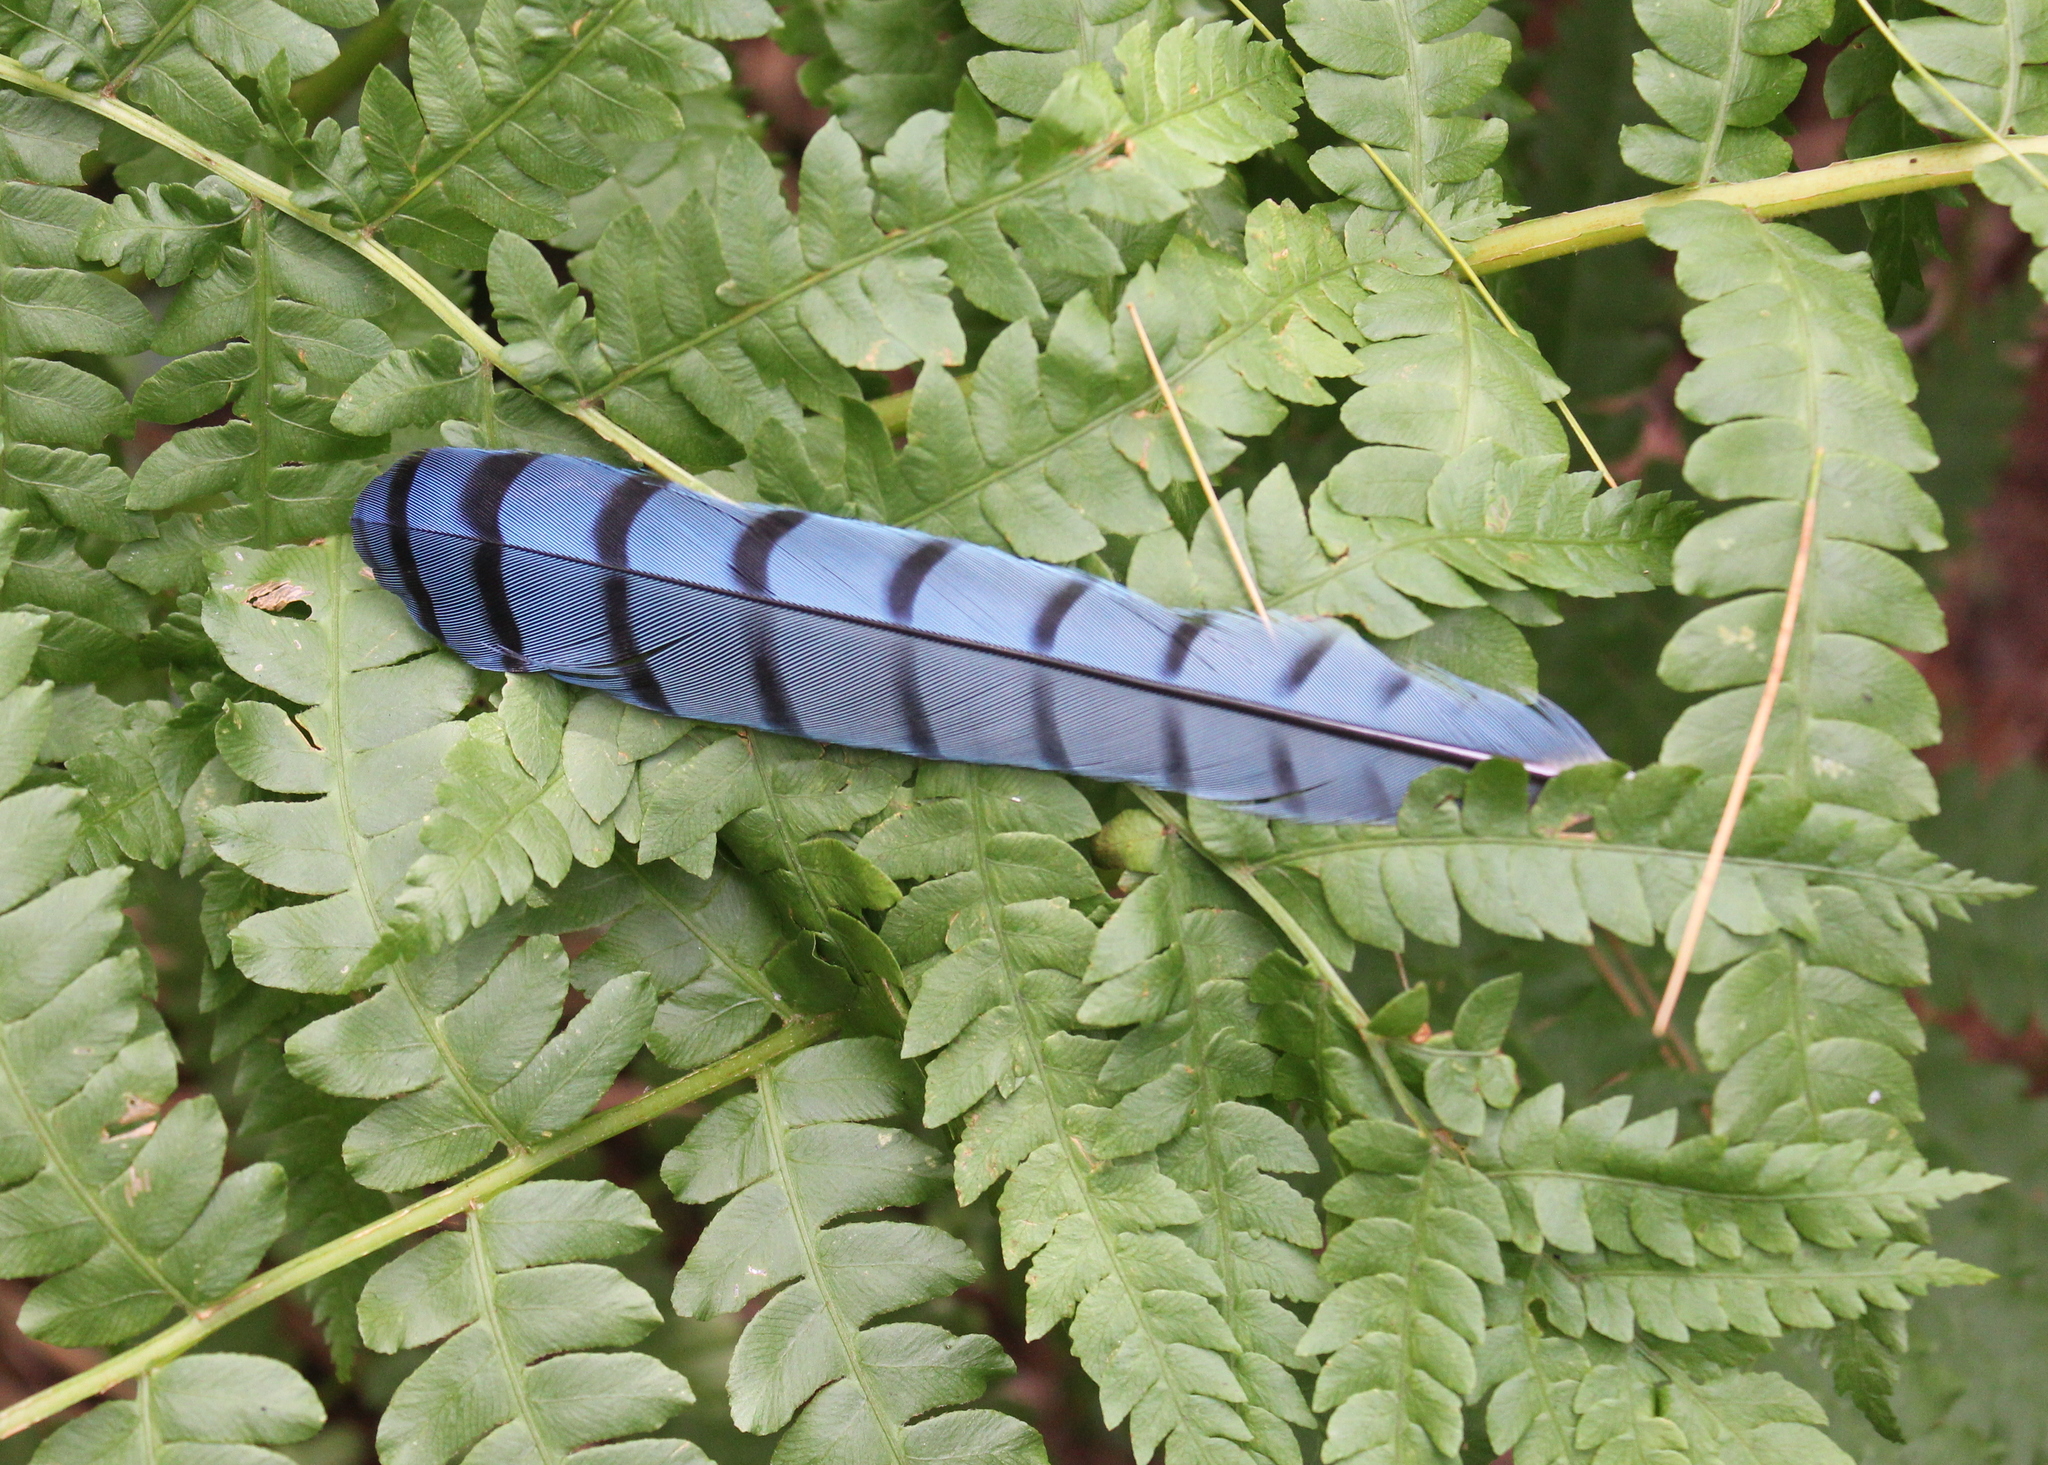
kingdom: Animalia
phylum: Chordata
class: Aves
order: Passeriformes
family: Corvidae
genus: Cyanocitta
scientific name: Cyanocitta cristata
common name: Blue jay
